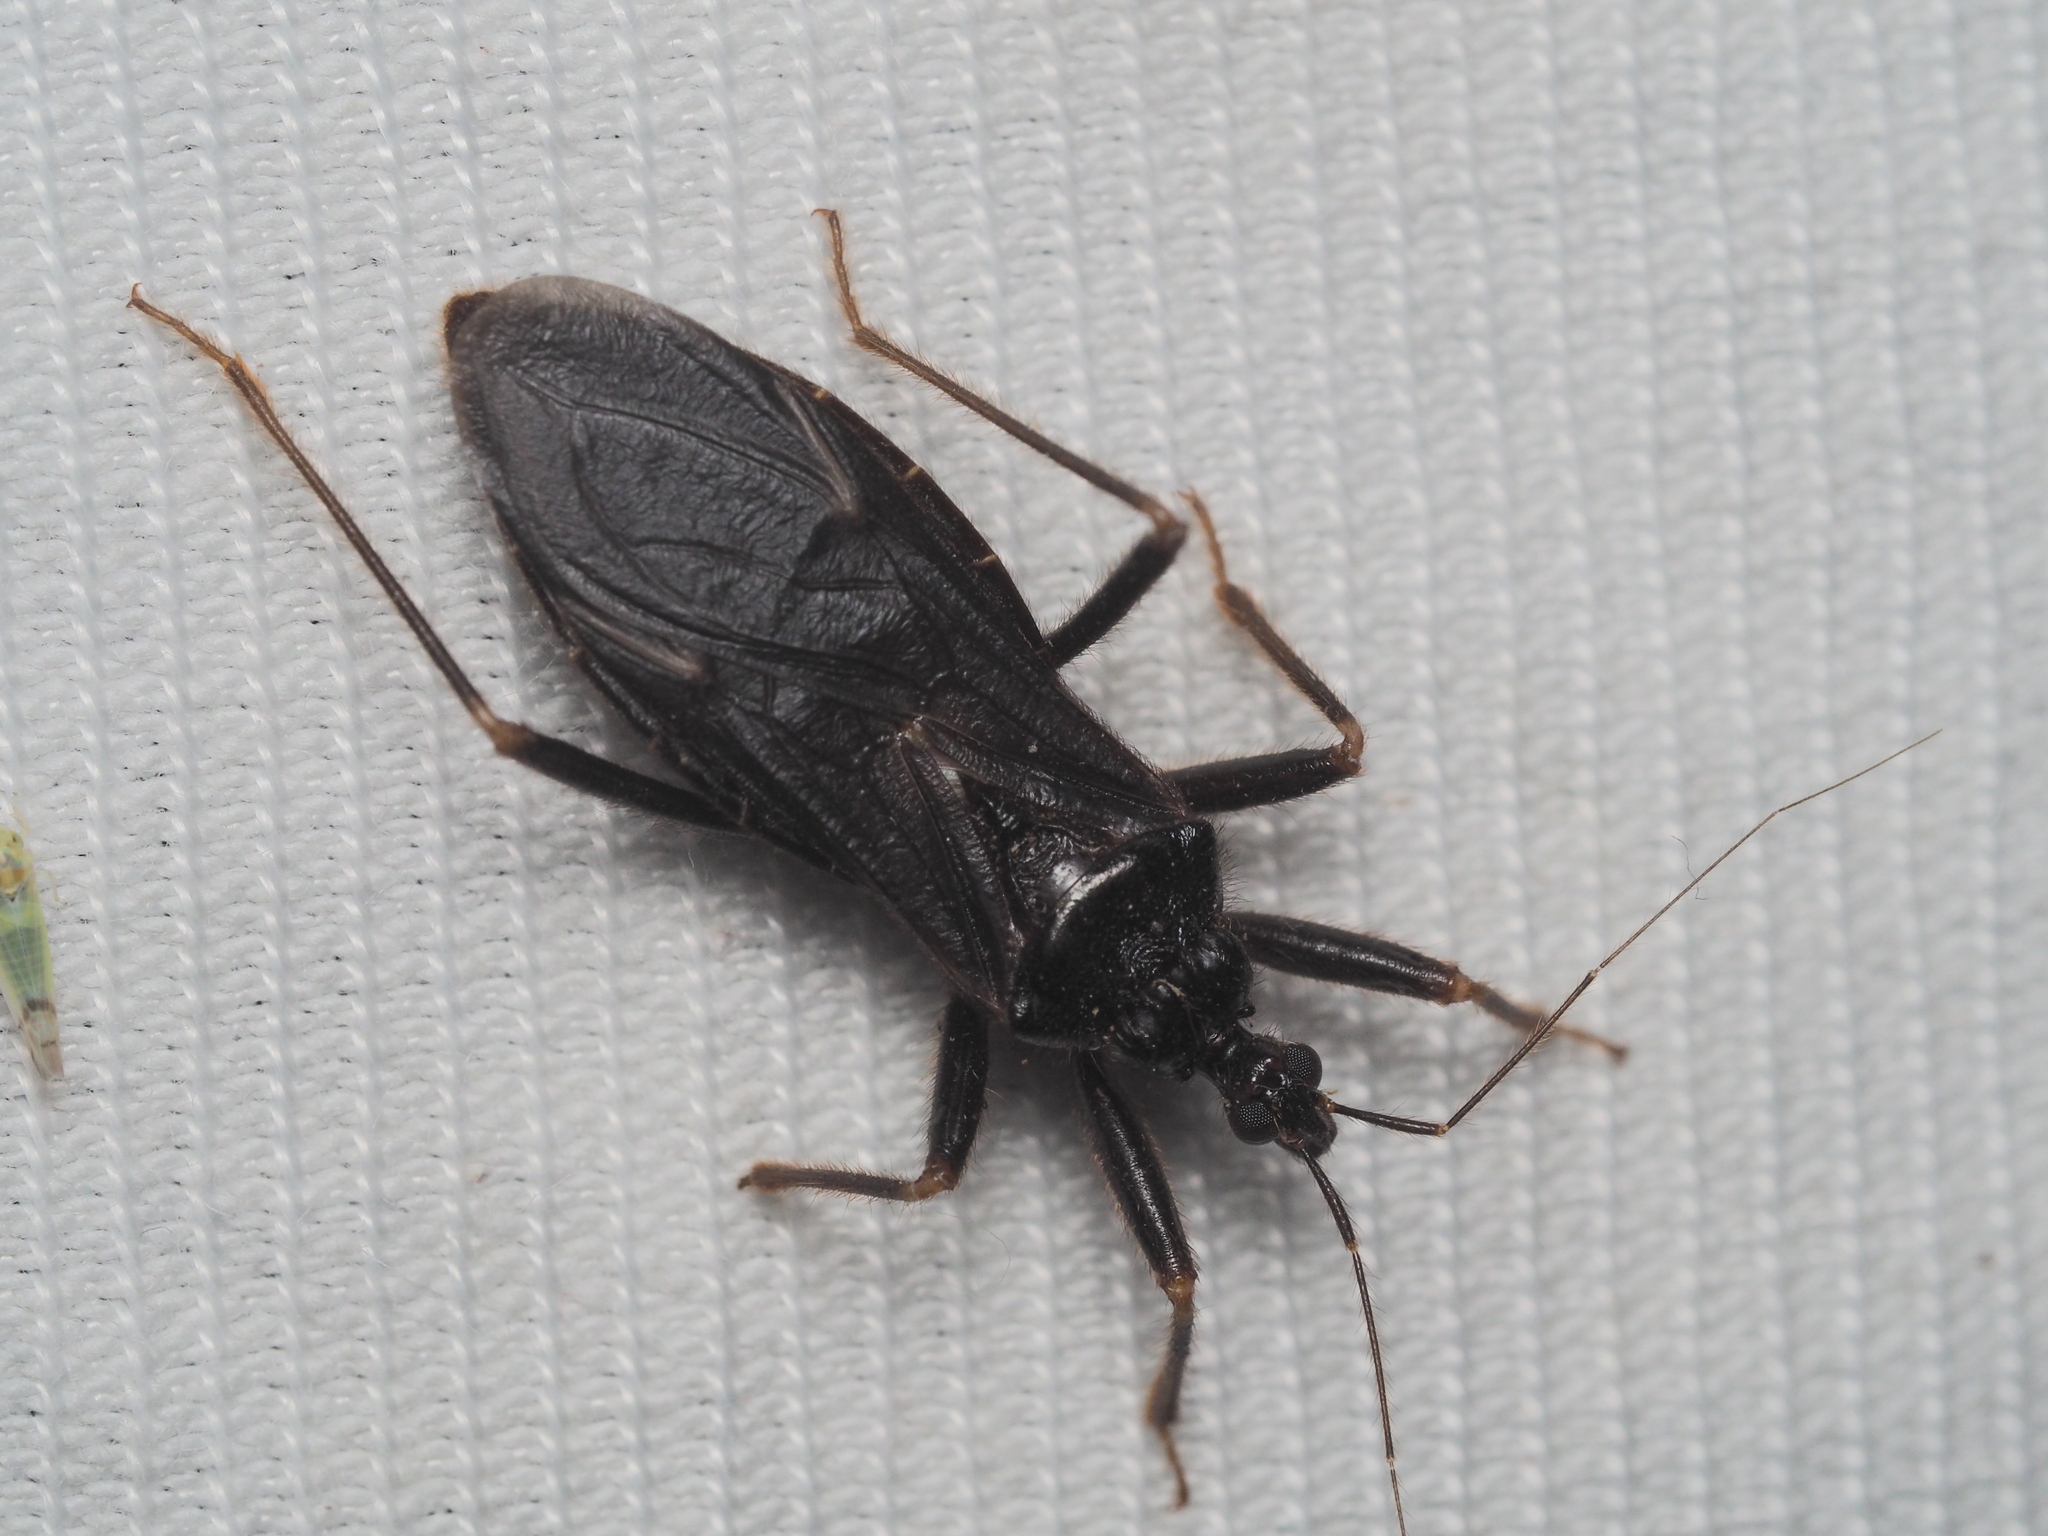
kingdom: Animalia
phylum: Arthropoda
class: Insecta
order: Hemiptera
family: Reduviidae
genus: Reduvius
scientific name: Reduvius personatus
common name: Masked hunter
